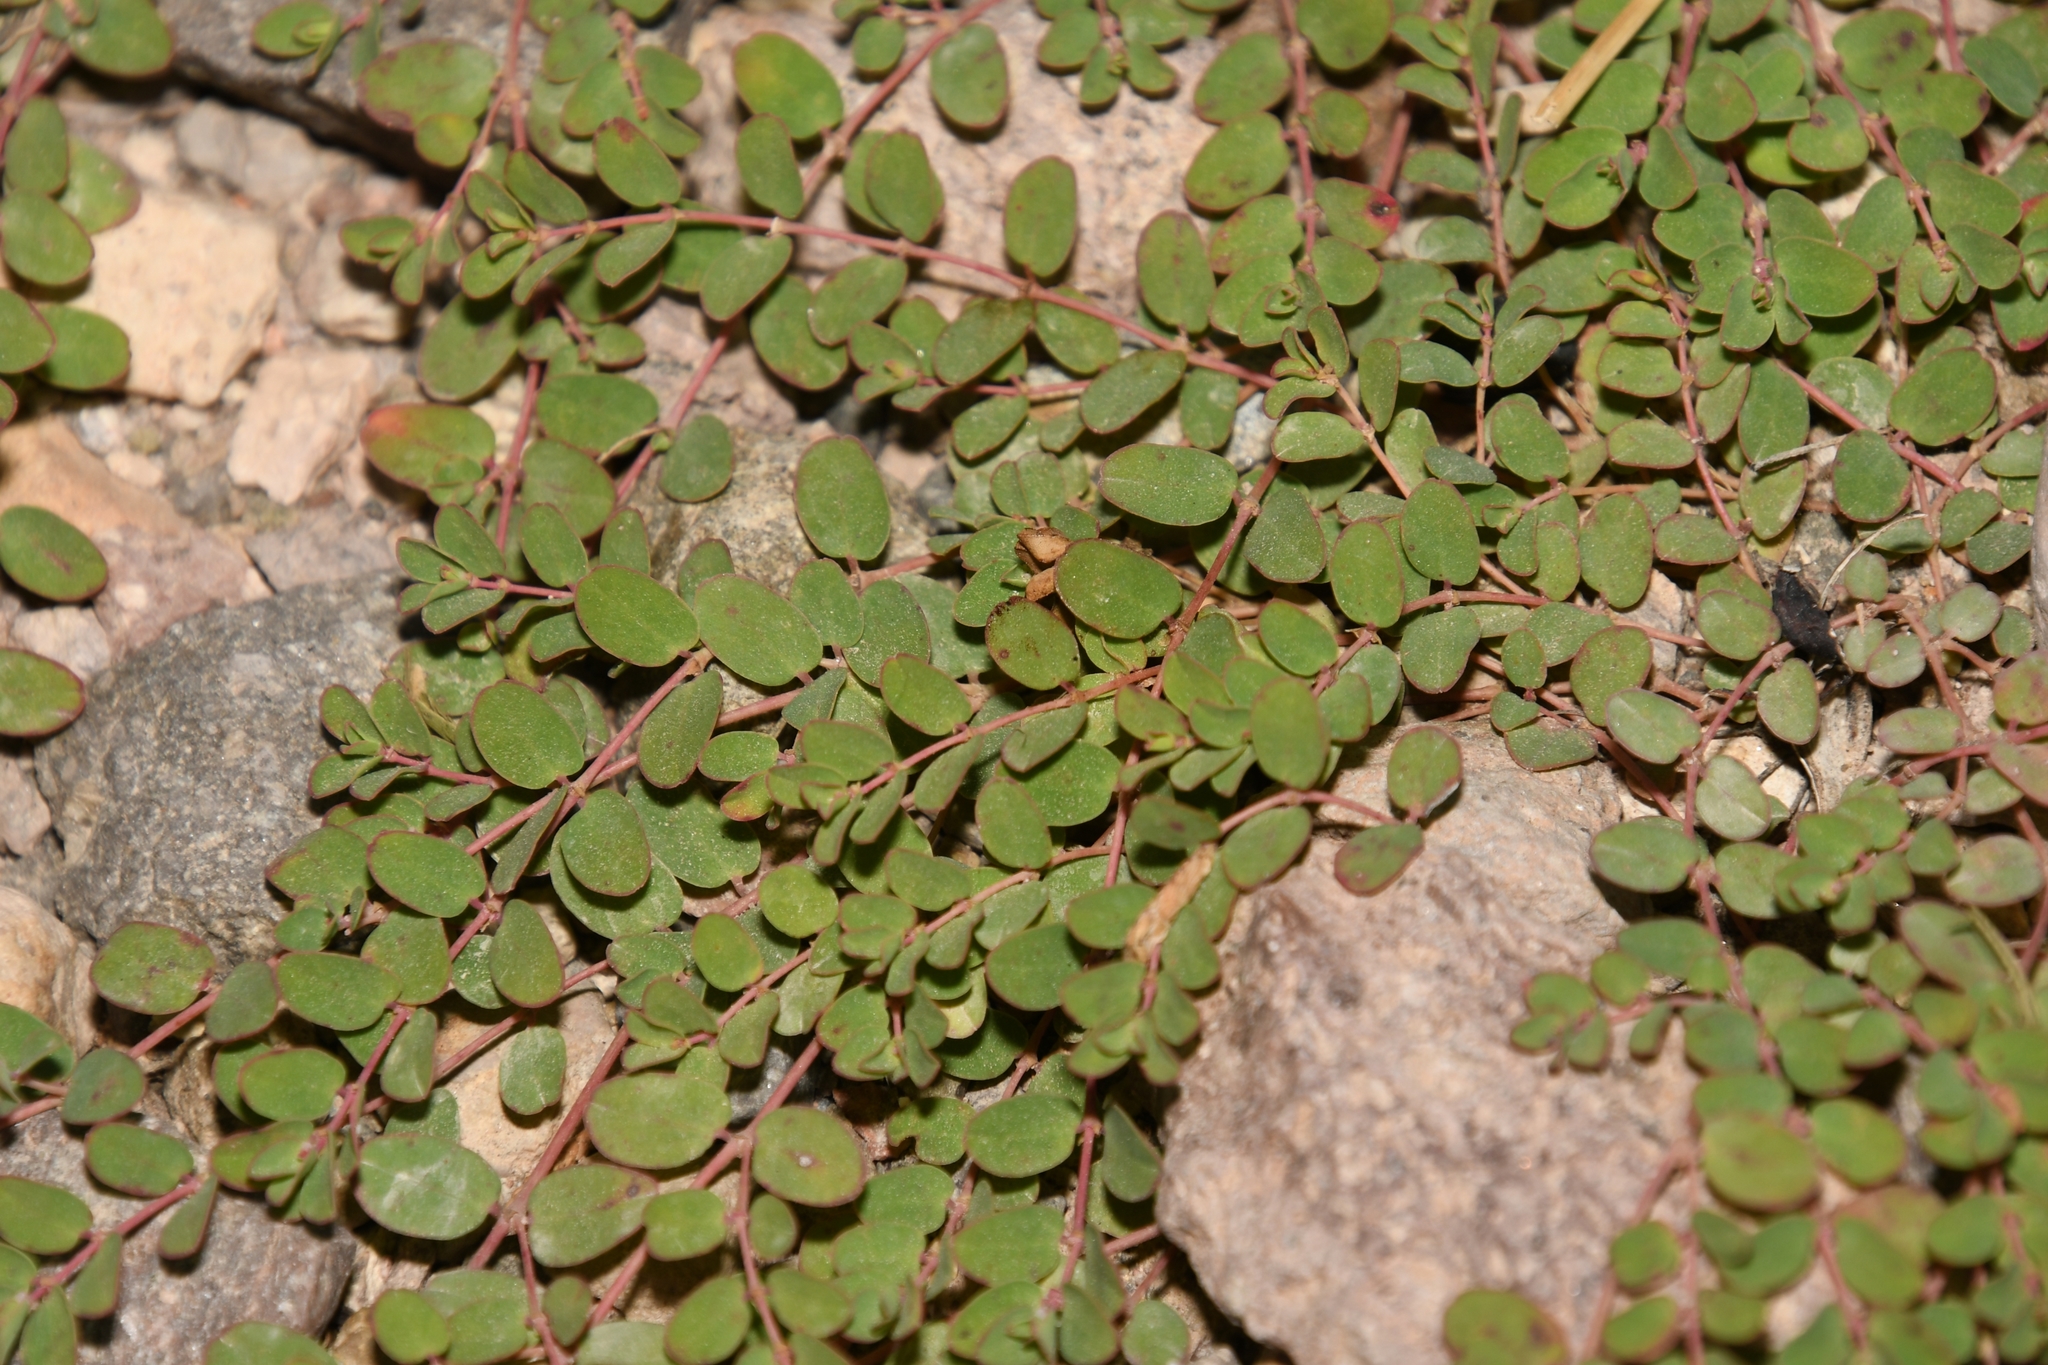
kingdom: Plantae
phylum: Tracheophyta
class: Magnoliopsida
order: Malpighiales
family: Euphorbiaceae
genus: Euphorbia
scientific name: Euphorbia albomarginata
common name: Whitemargin sandmat
